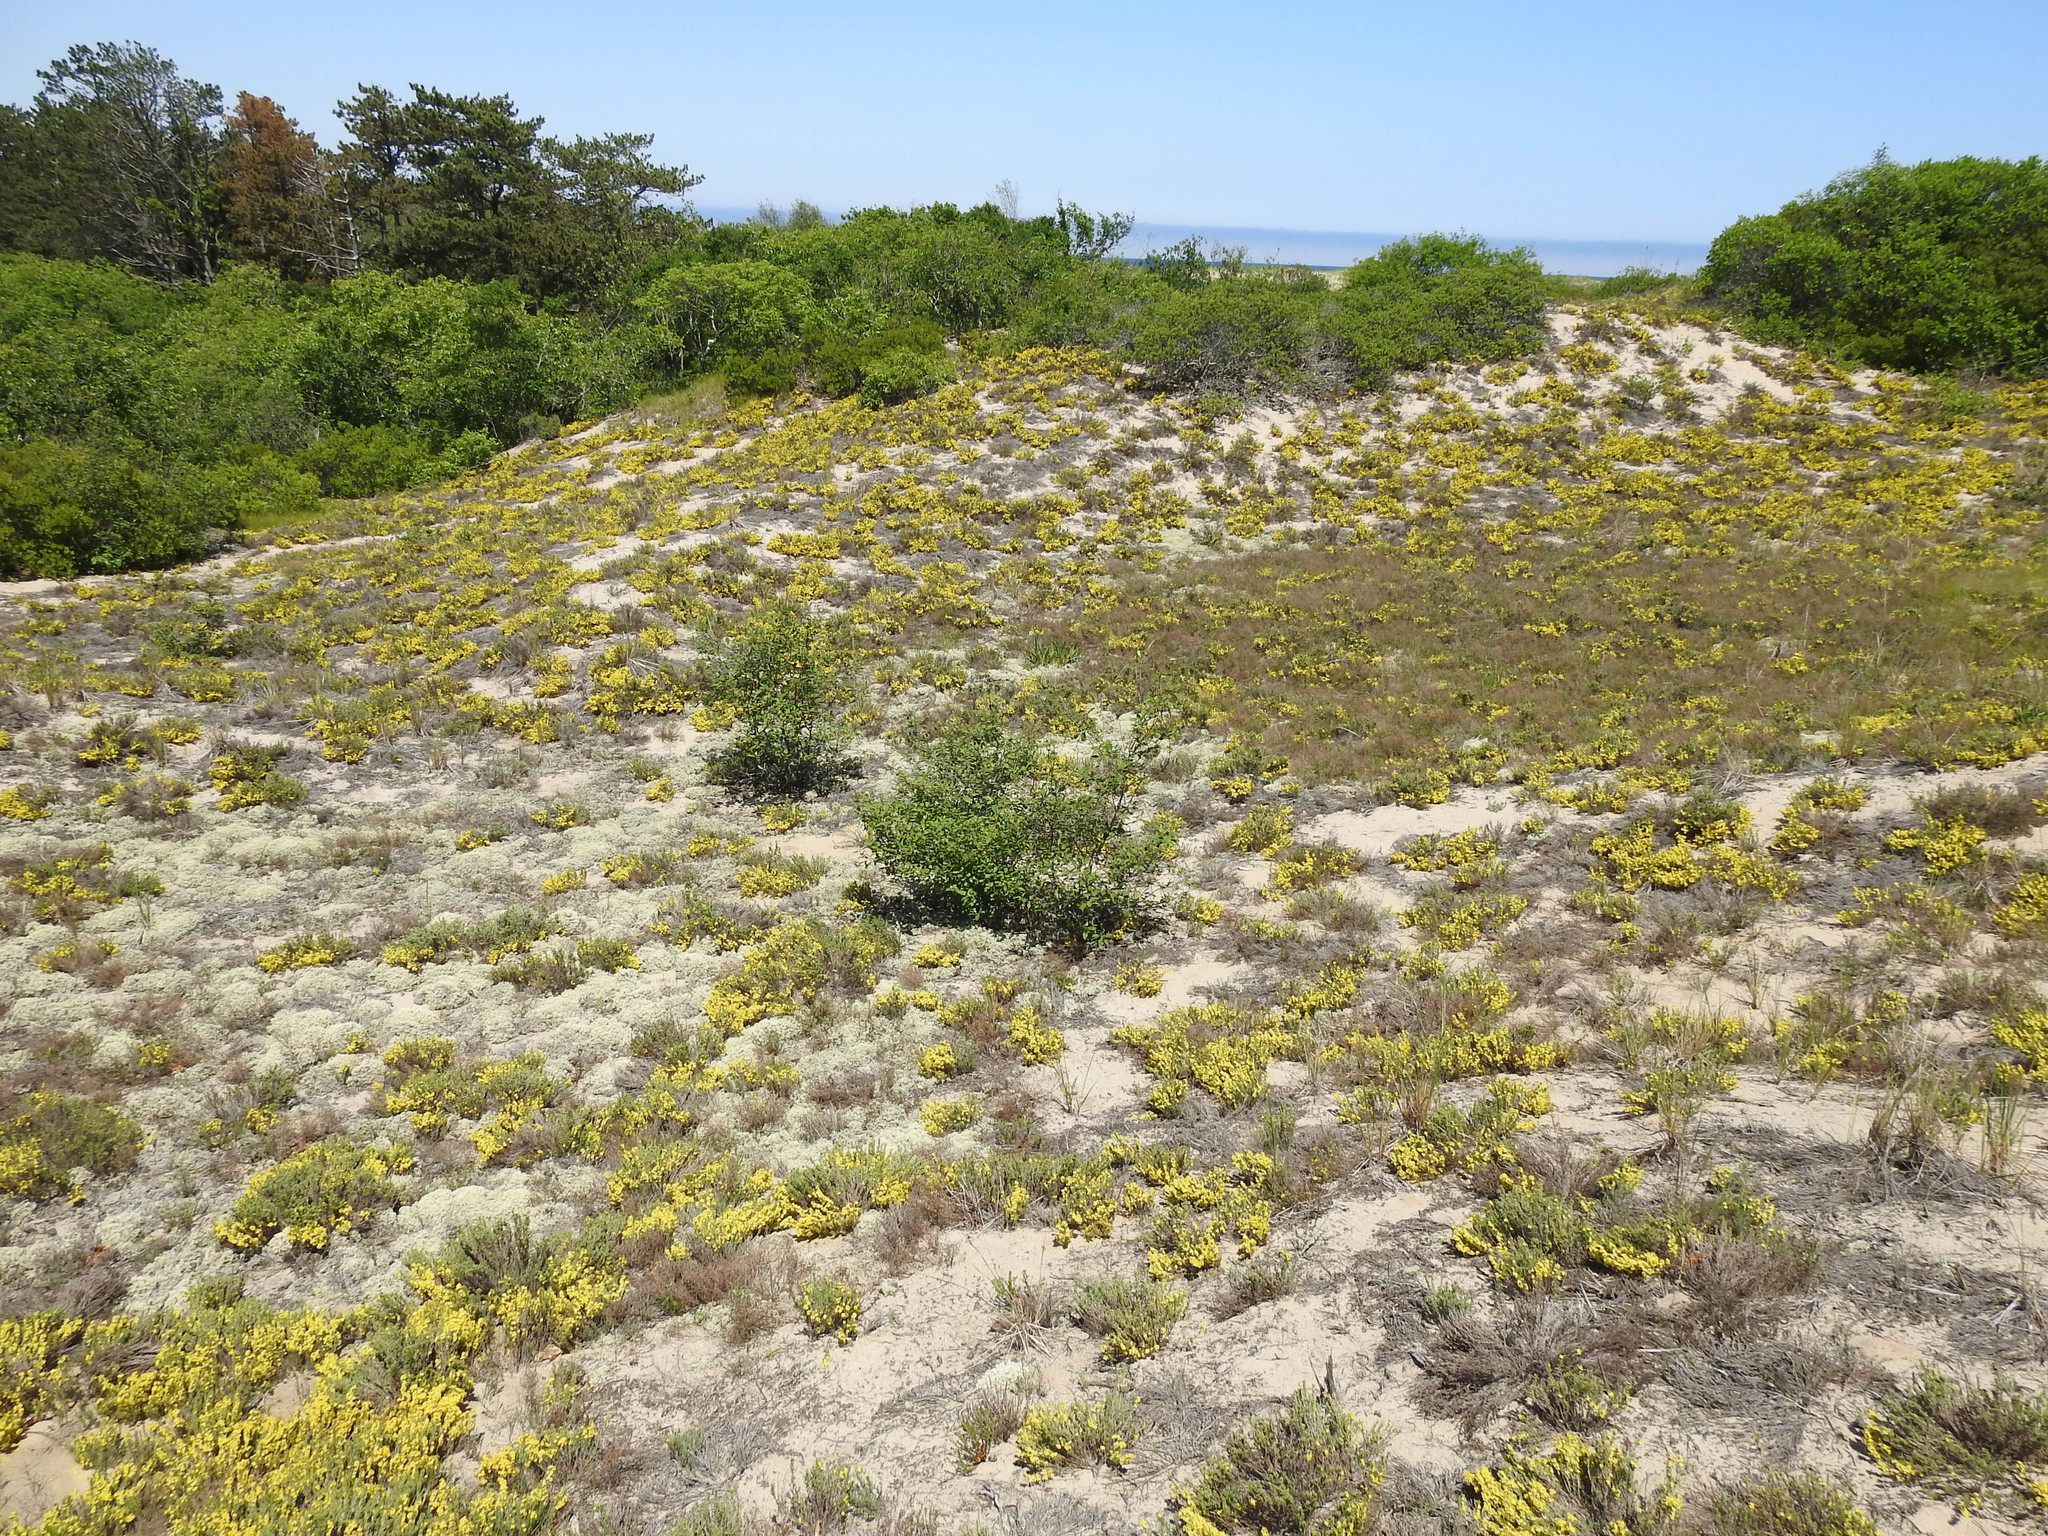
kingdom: Plantae
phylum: Tracheophyta
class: Magnoliopsida
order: Malvales
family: Cistaceae
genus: Hudsonia
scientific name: Hudsonia tomentosa
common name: Beach-heath
